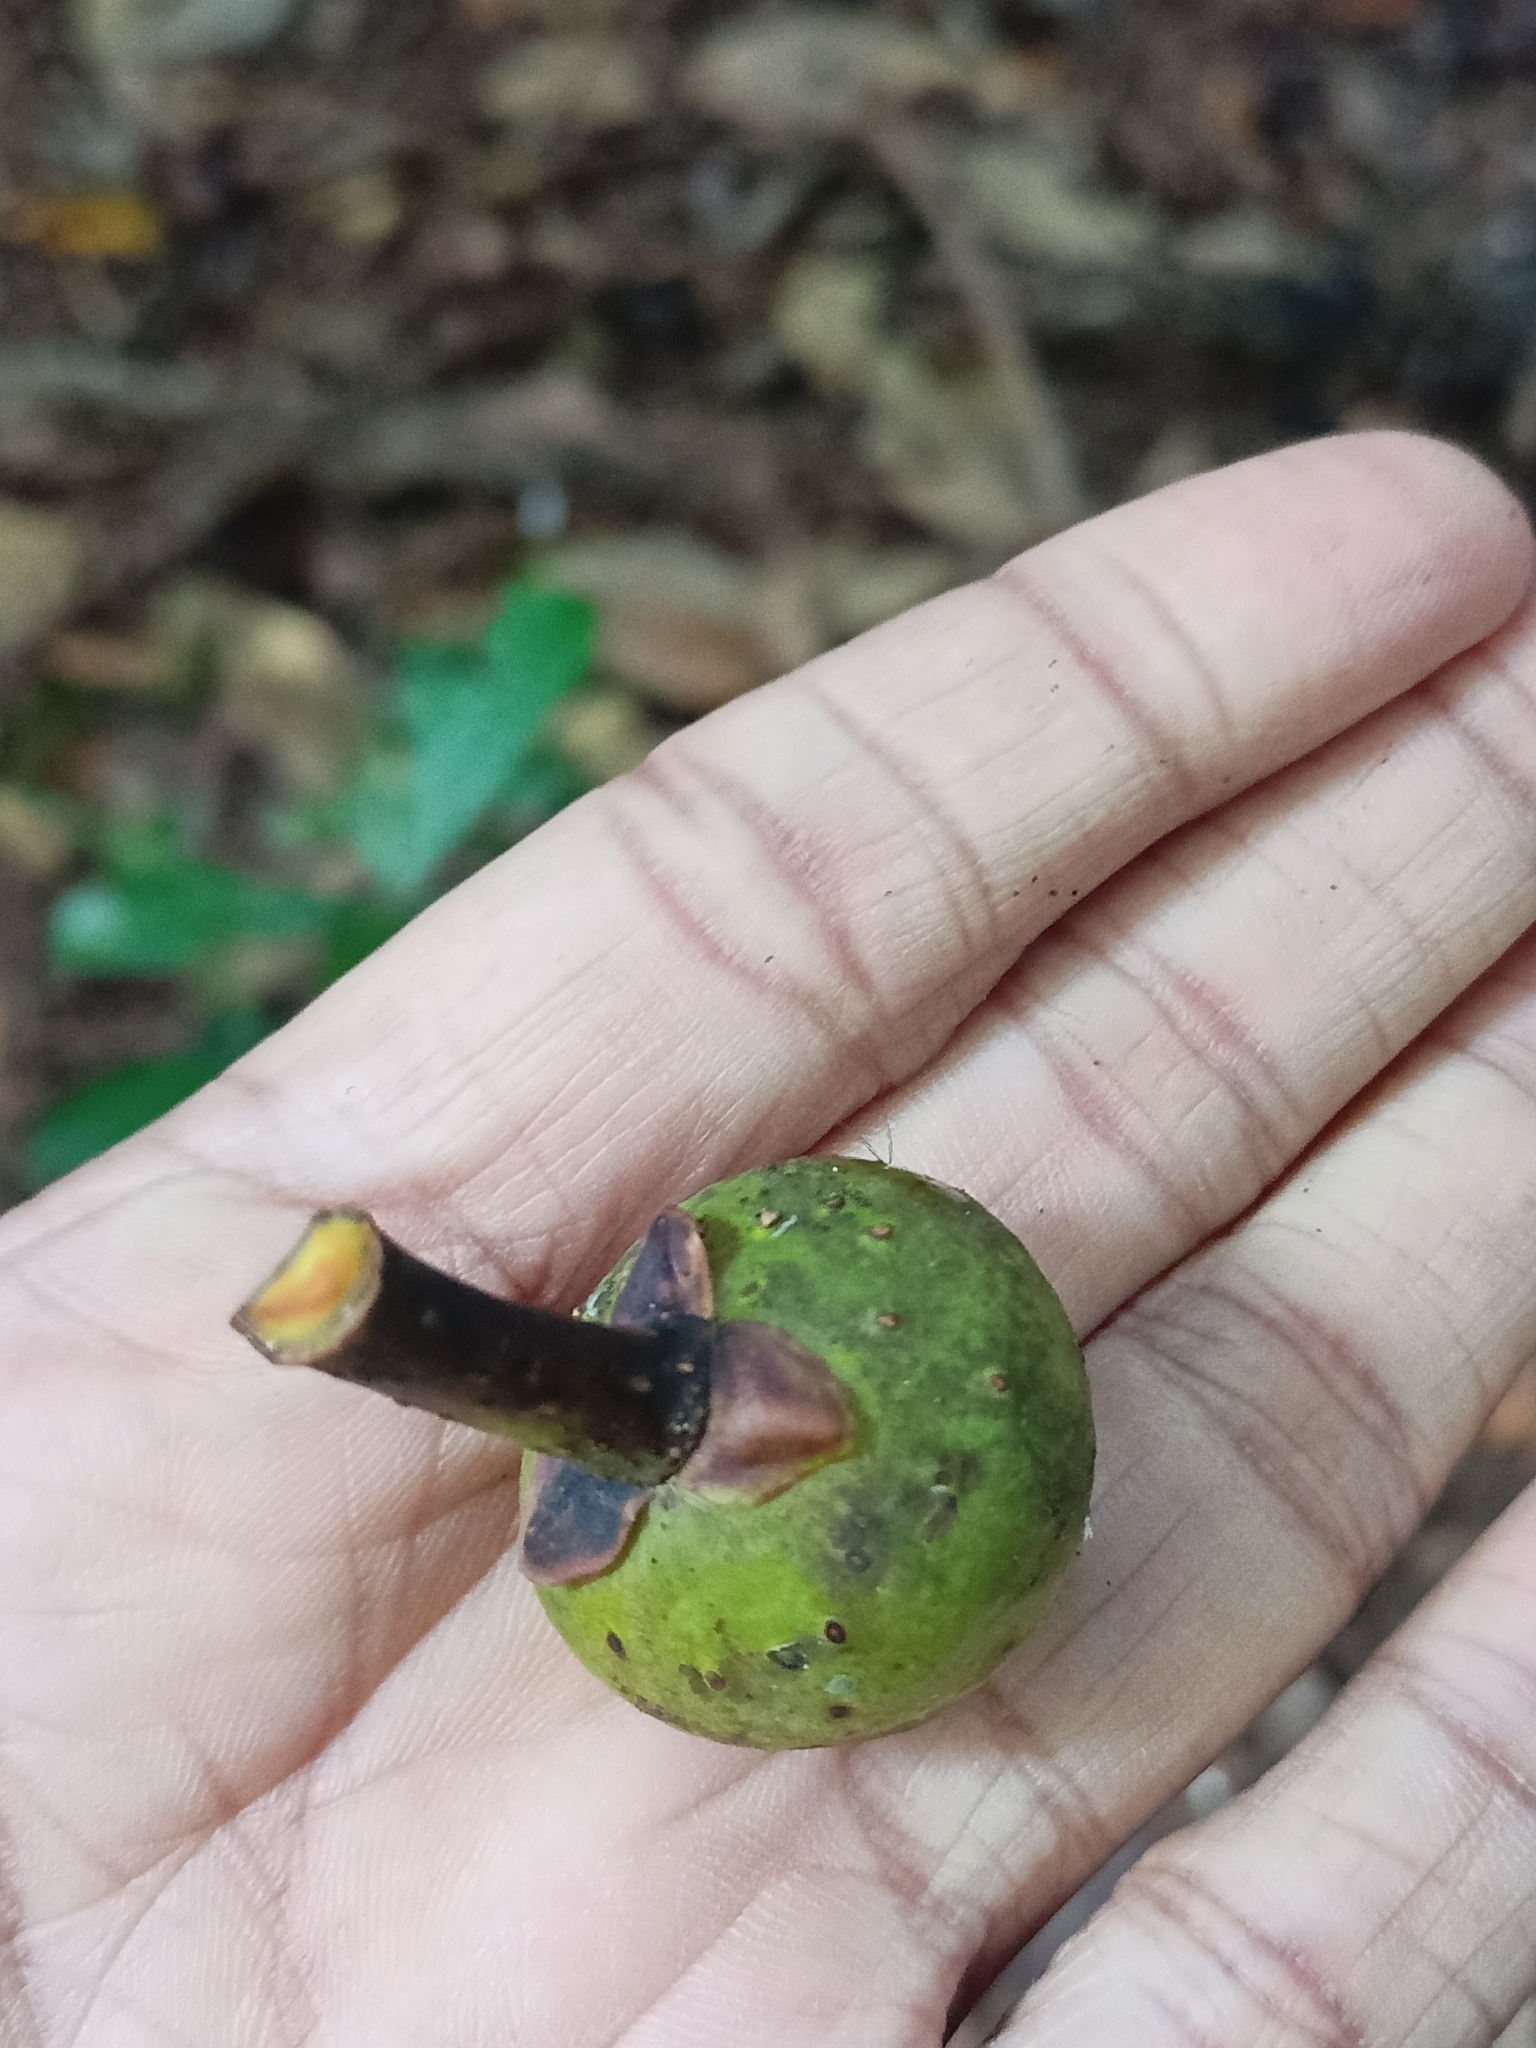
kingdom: Plantae
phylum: Tracheophyta
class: Magnoliopsida
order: Rosales
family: Moraceae
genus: Ficus
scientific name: Ficus beddomei
